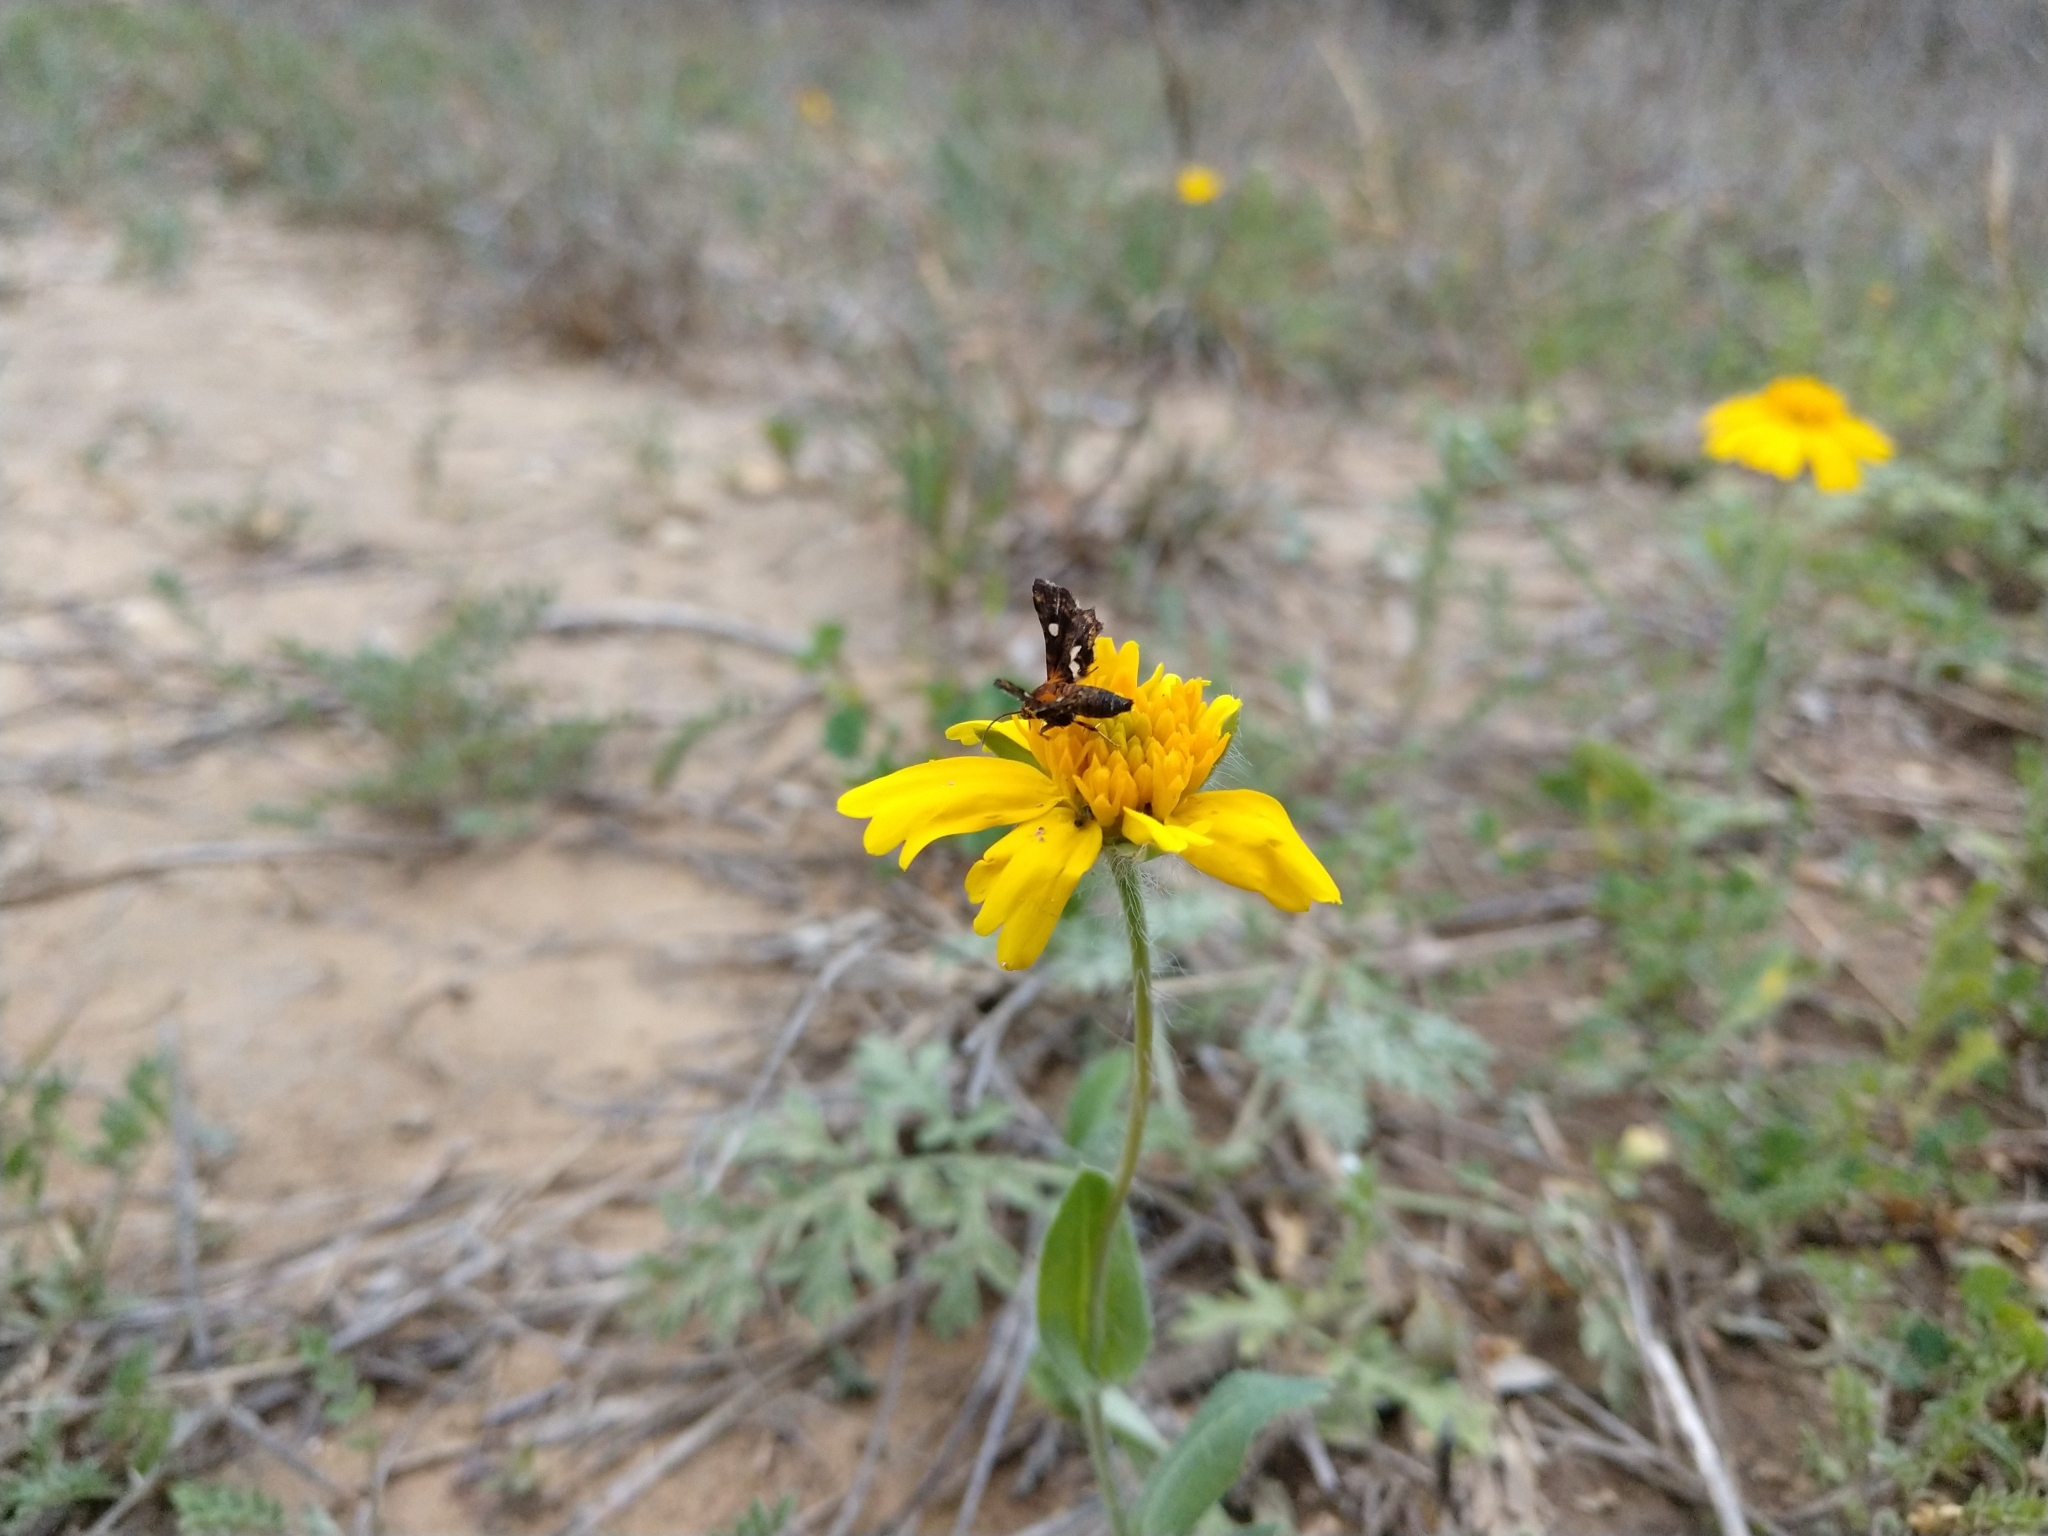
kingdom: Animalia
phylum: Arthropoda
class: Insecta
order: Lepidoptera
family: Thyrididae
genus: Thyris
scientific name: Thyris maculata
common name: Spotted thyris moth
